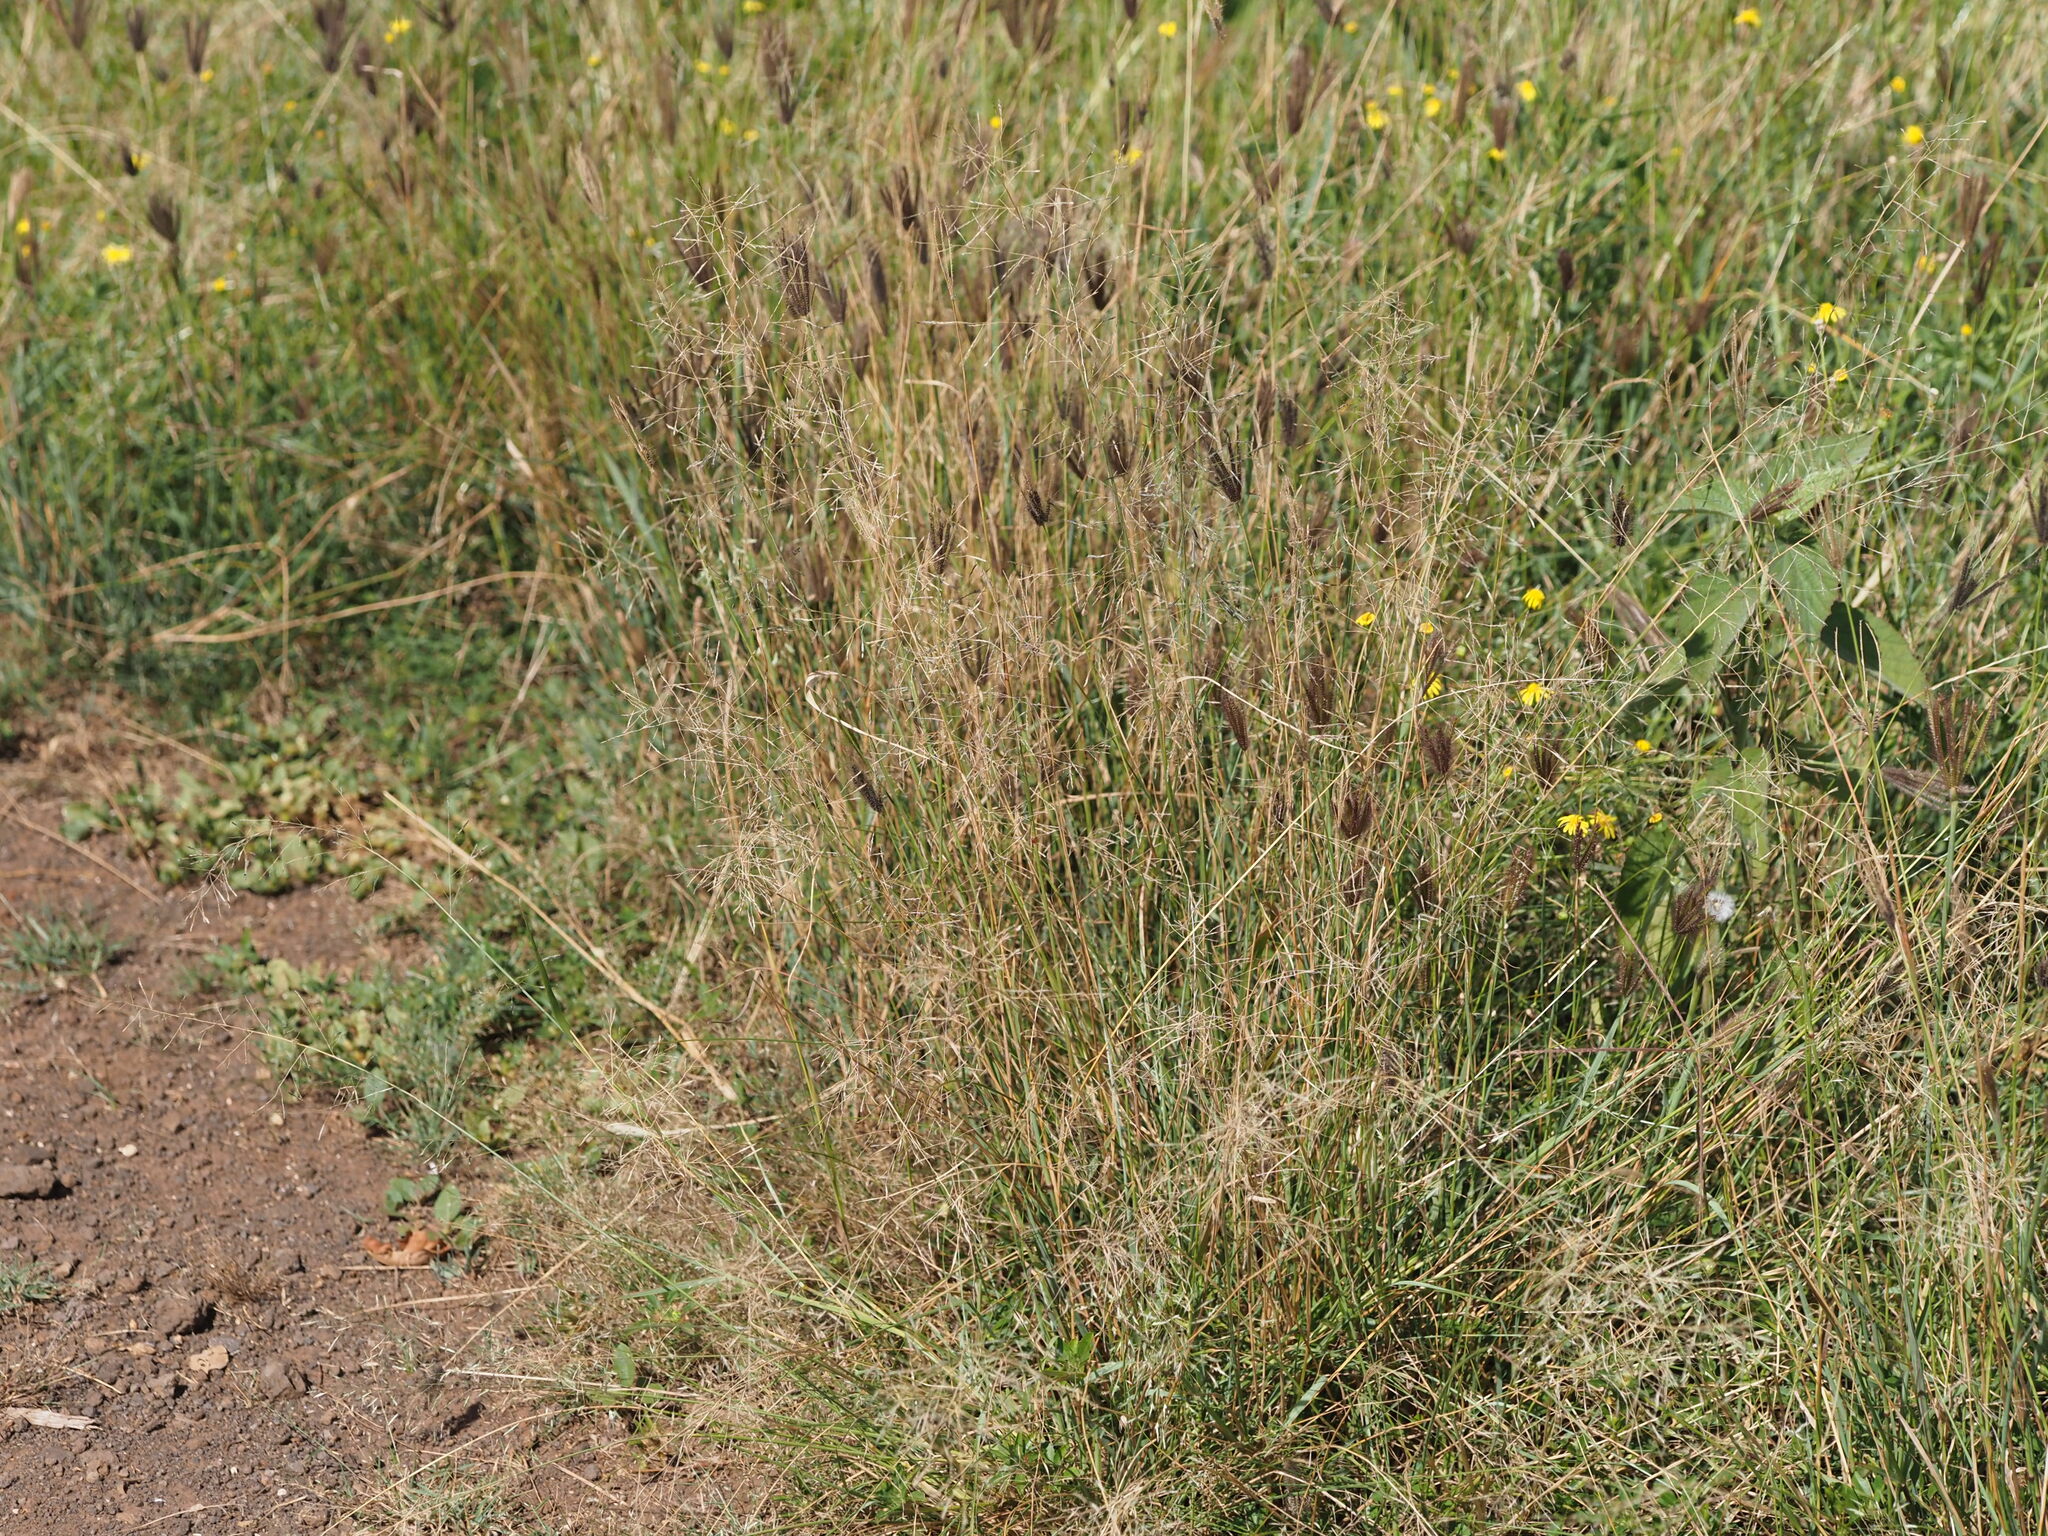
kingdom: Plantae
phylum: Tracheophyta
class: Liliopsida
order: Poales
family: Poaceae
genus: Chloris
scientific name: Chloris barbata
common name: Swollen fingergrass
